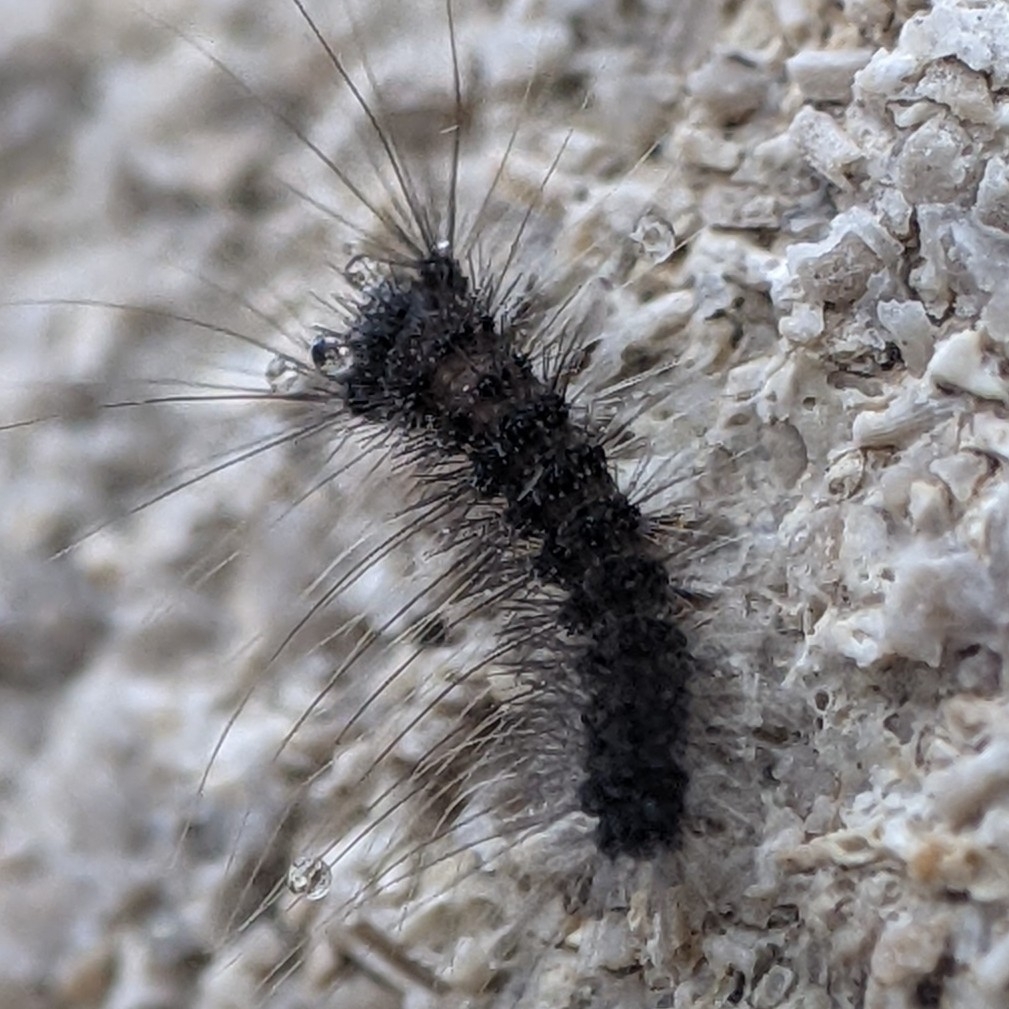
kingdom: Animalia
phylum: Arthropoda
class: Insecta
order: Lepidoptera
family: Erebidae
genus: Lymantria
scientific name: Lymantria dispar
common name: Gypsy moth
